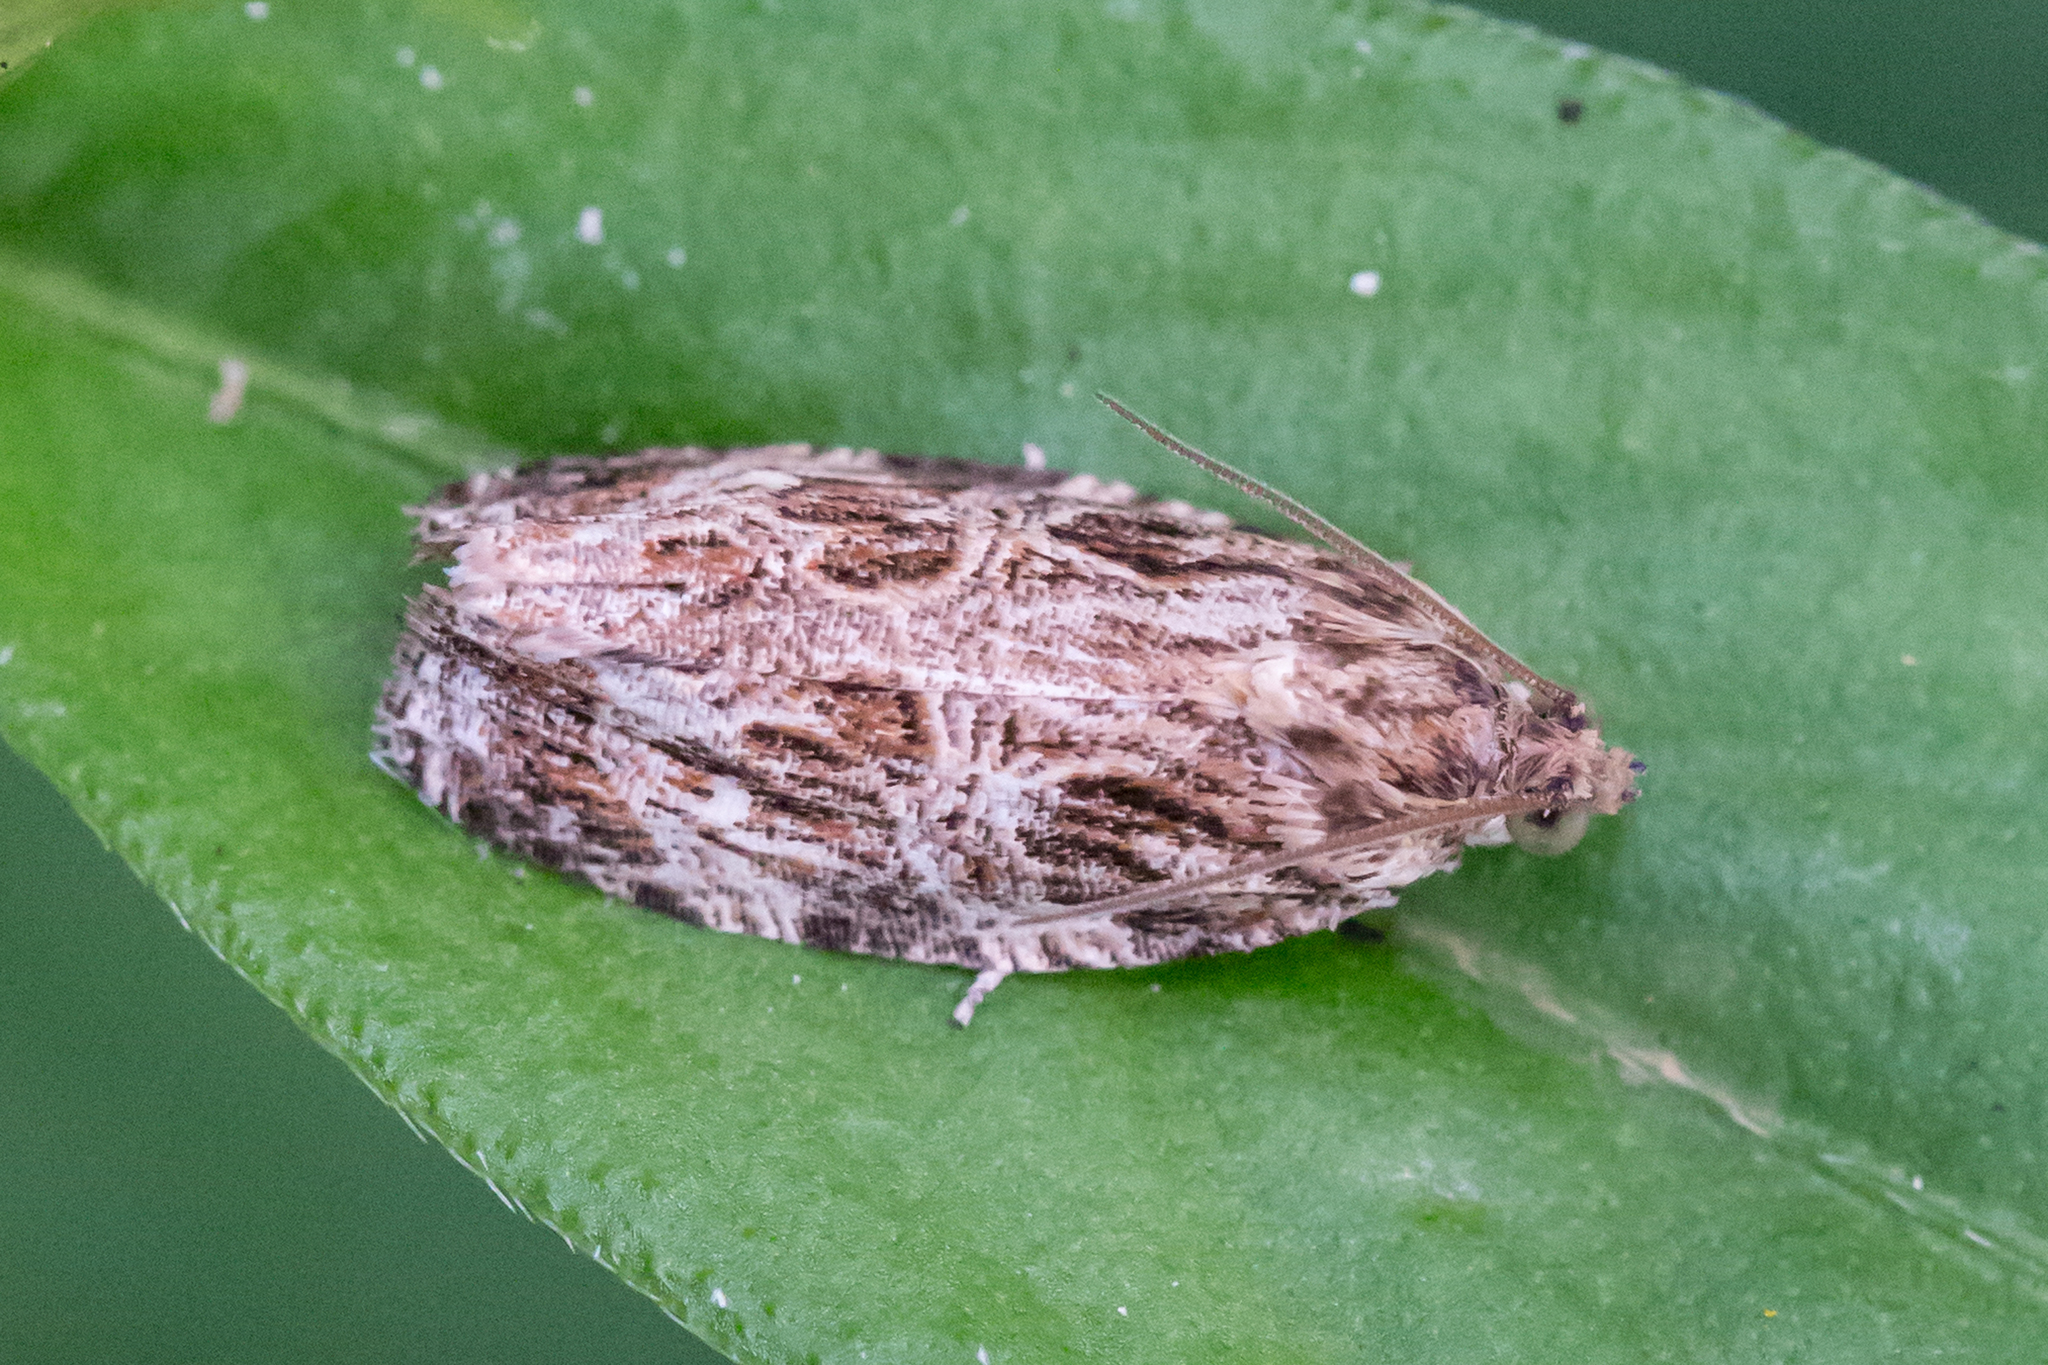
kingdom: Animalia
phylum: Arthropoda
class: Insecta
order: Lepidoptera
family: Tortricidae
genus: Phaecasiophora
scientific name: Phaecasiophora confixana
